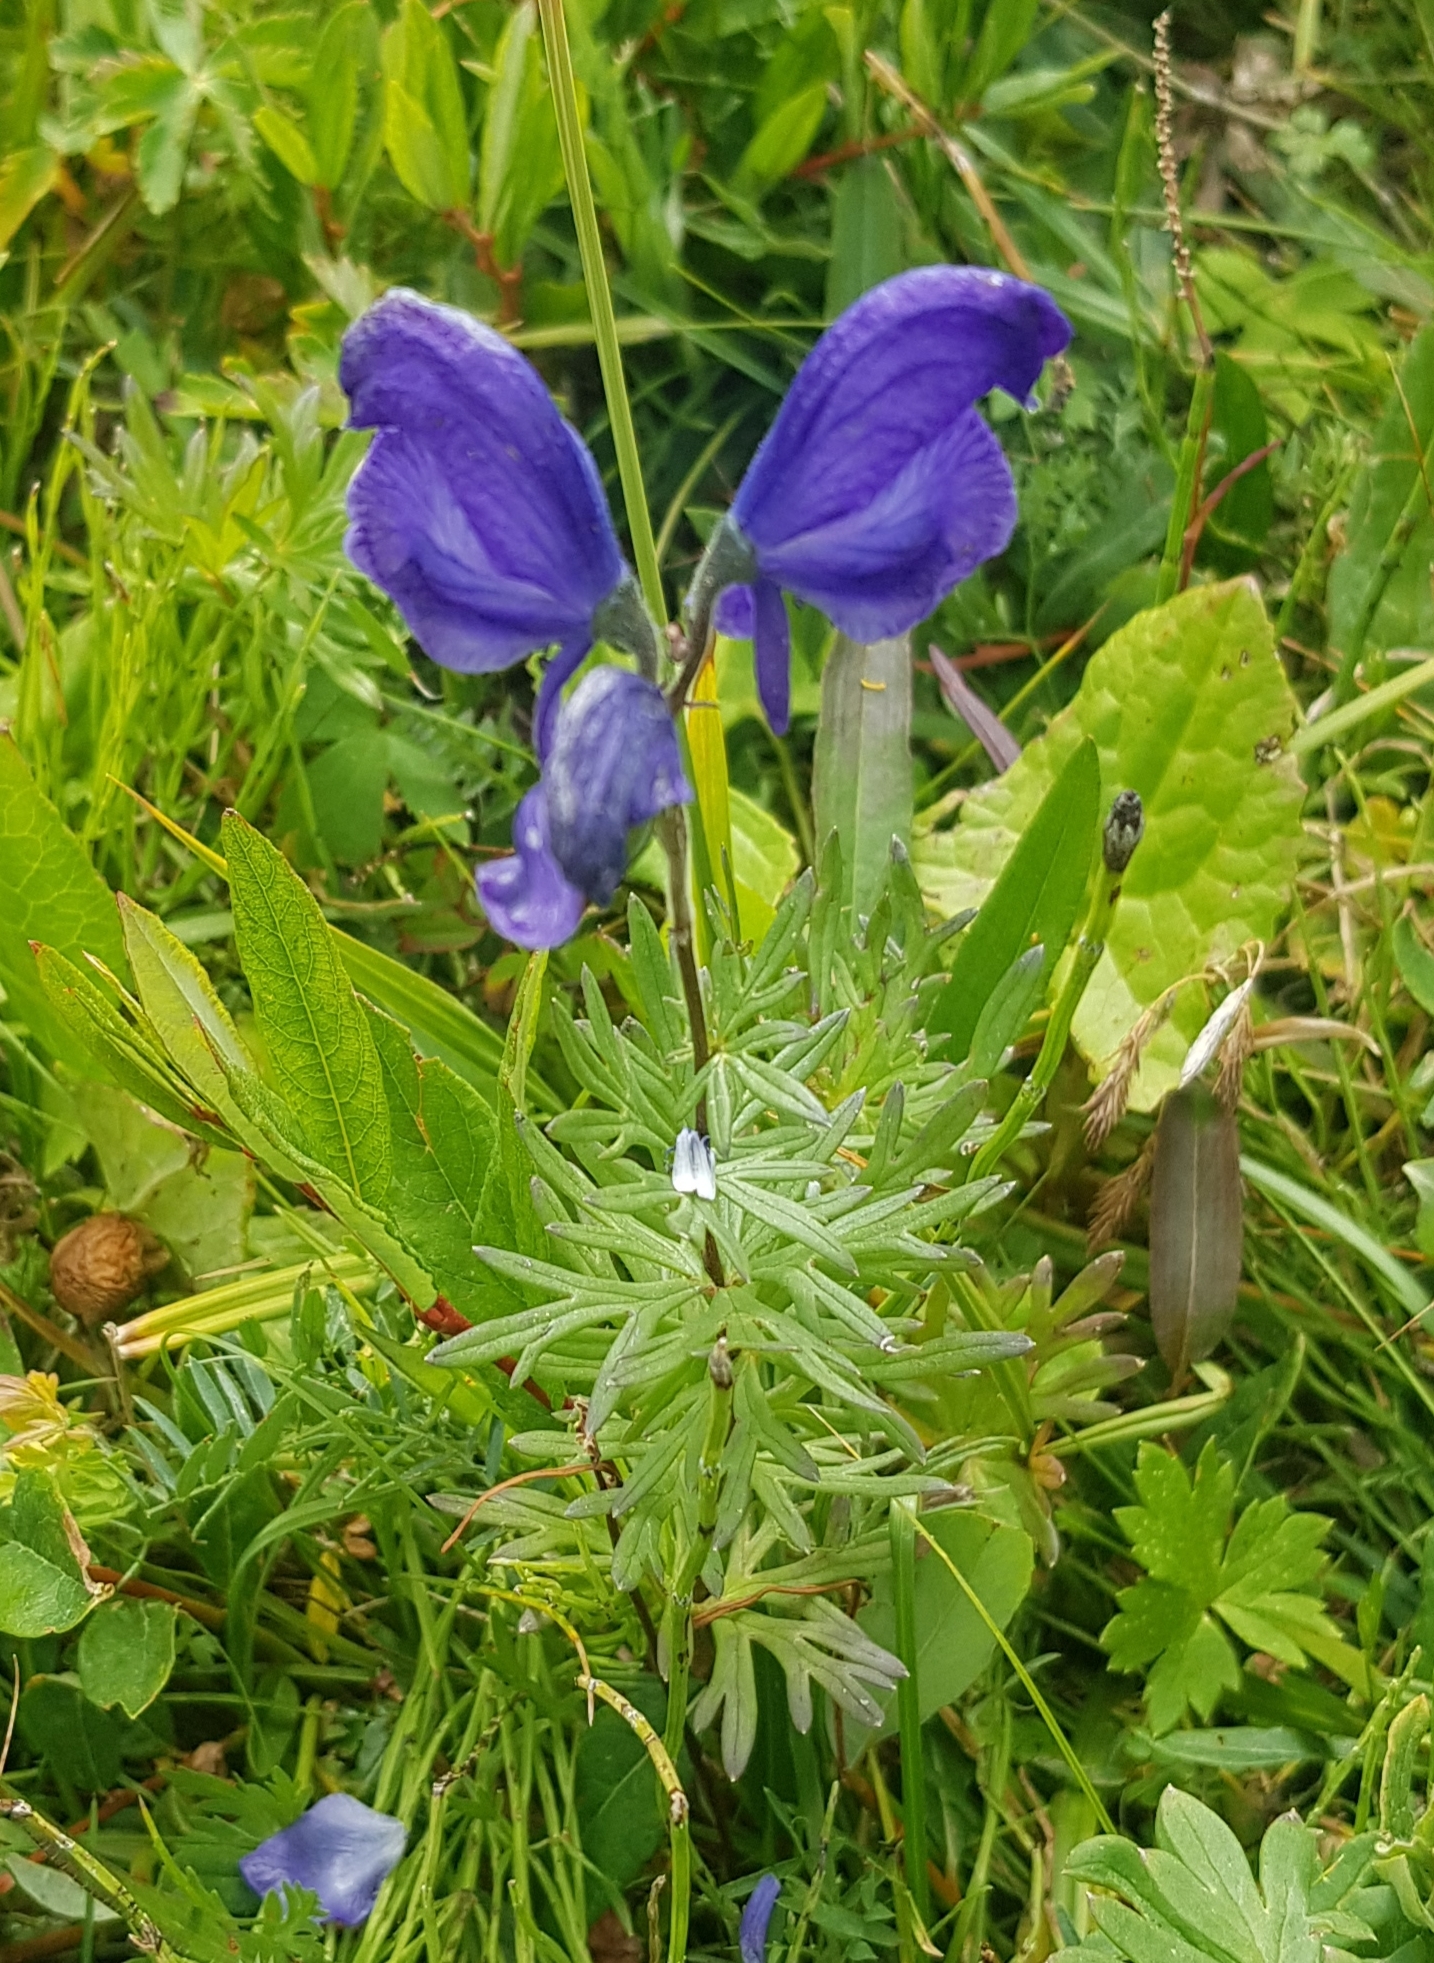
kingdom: Plantae
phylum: Tracheophyta
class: Magnoliopsida
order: Ranunculales
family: Ranunculaceae
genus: Aconitum
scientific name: Aconitum turczaninowii
